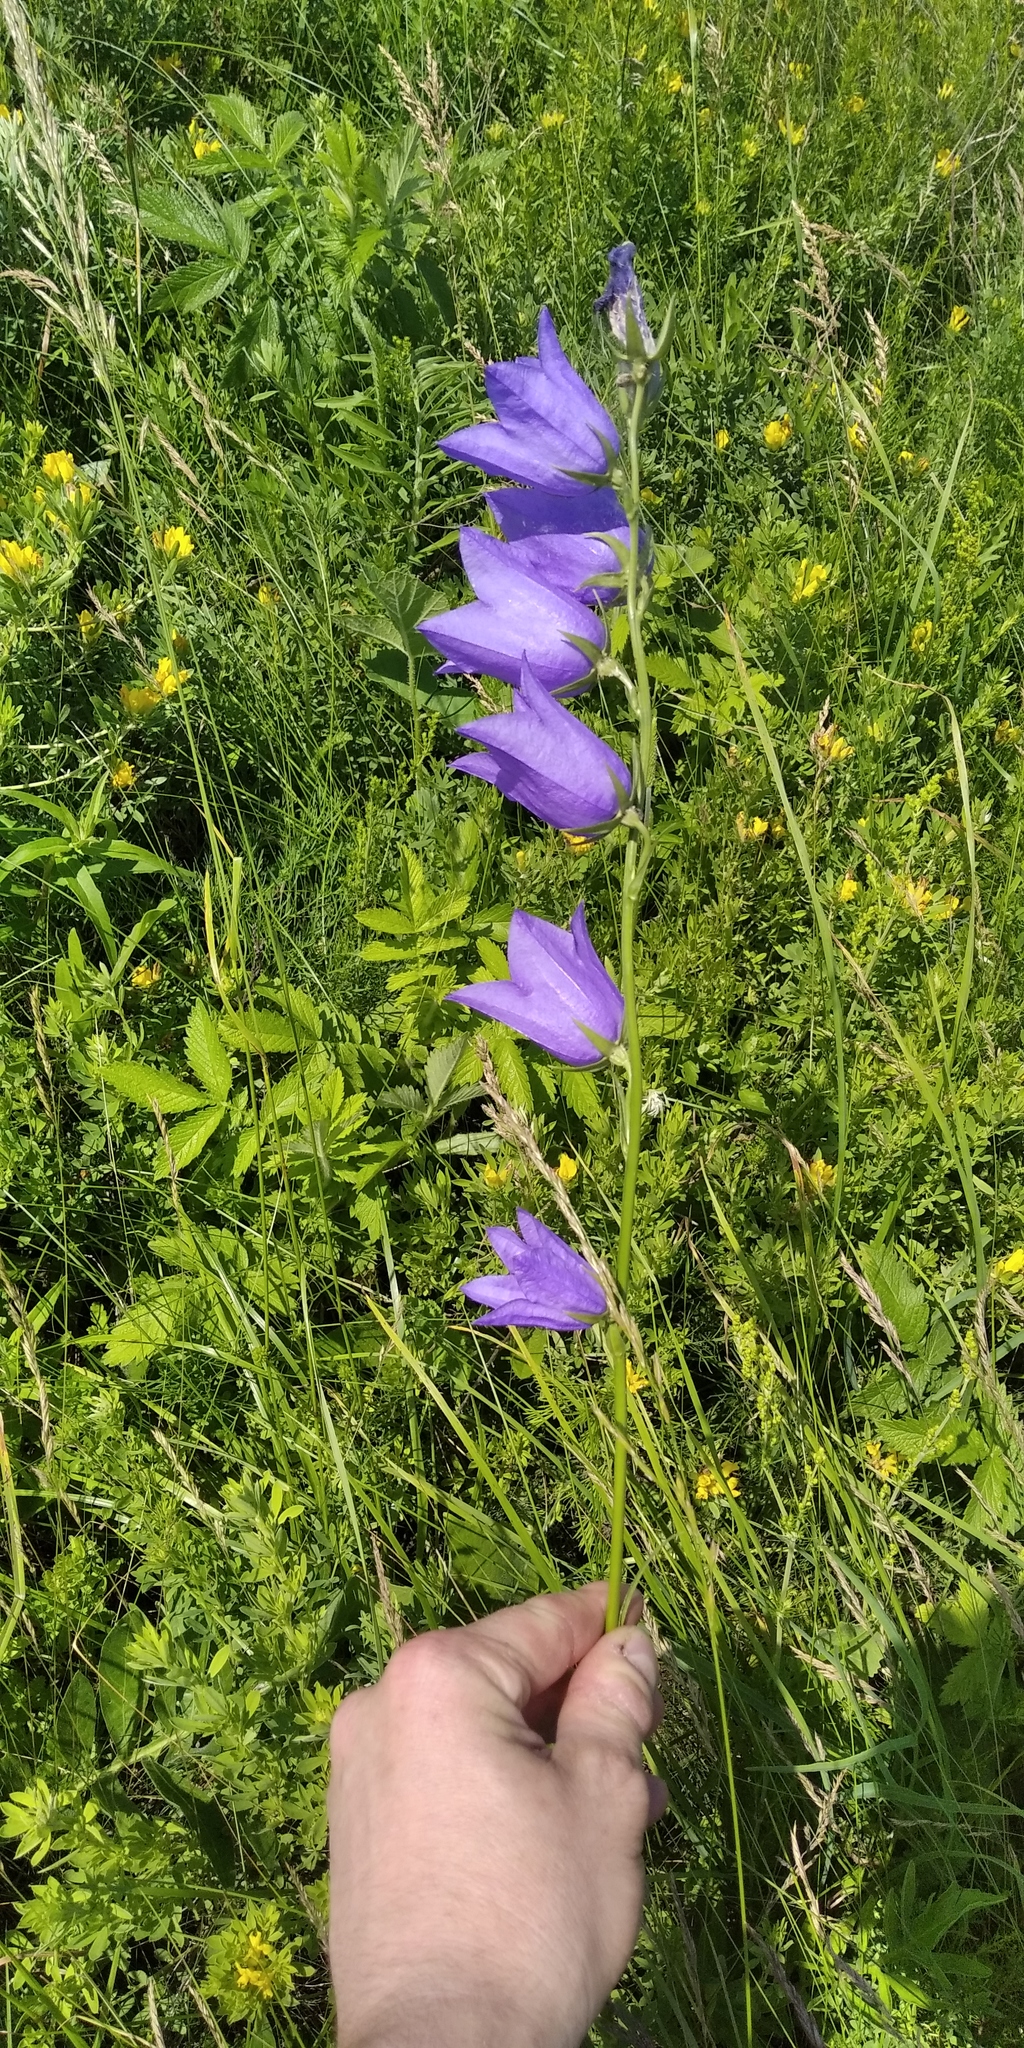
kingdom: Plantae
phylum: Tracheophyta
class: Magnoliopsida
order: Asterales
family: Campanulaceae
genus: Campanula
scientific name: Campanula persicifolia
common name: Peach-leaved bellflower
